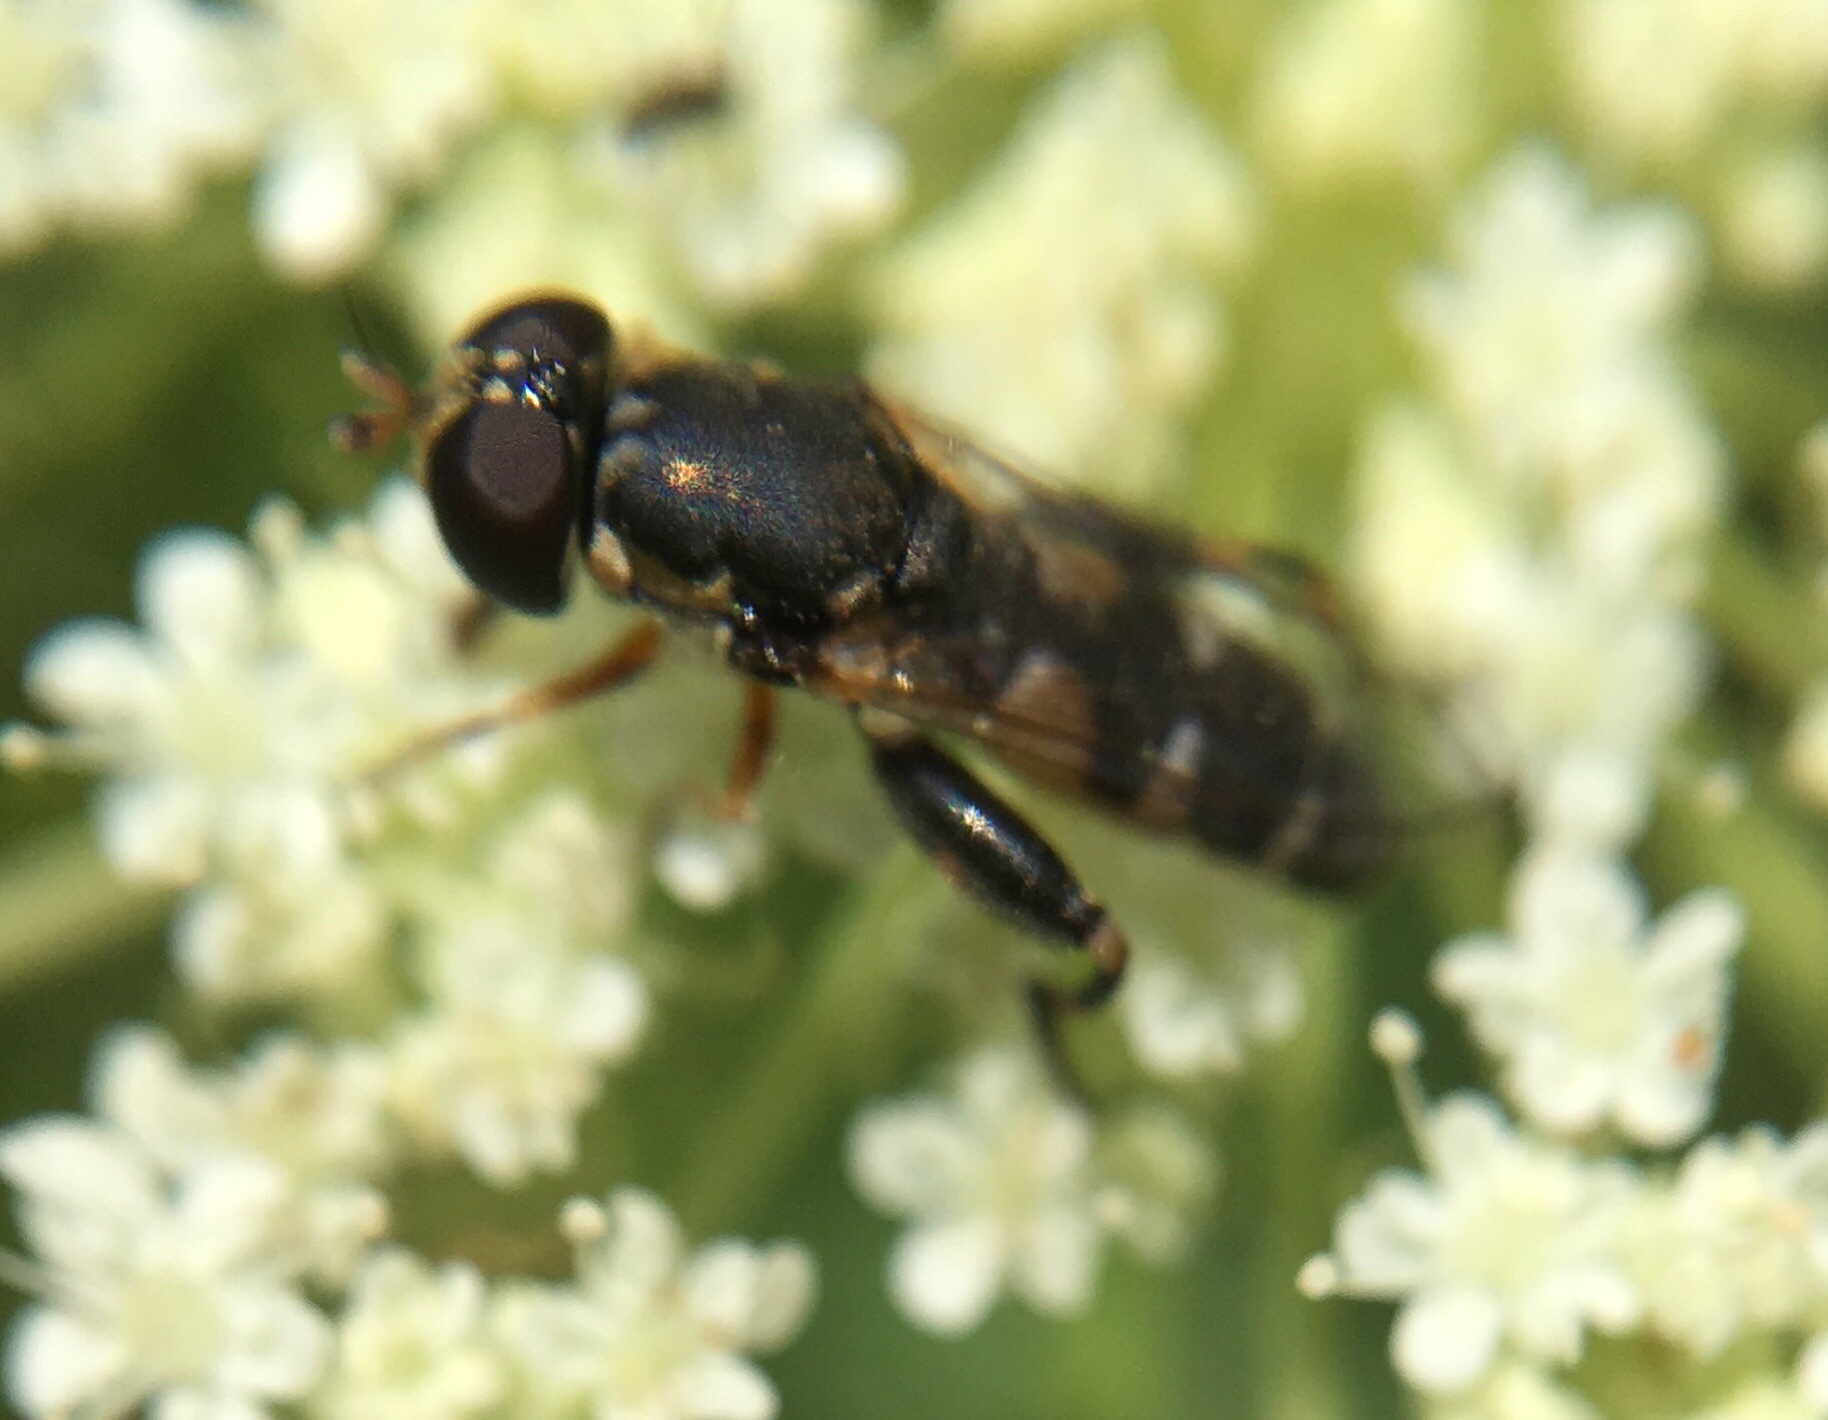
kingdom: Animalia
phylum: Arthropoda
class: Insecta
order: Diptera
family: Syrphidae
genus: Syritta
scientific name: Syritta pipiens
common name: Hover fly
